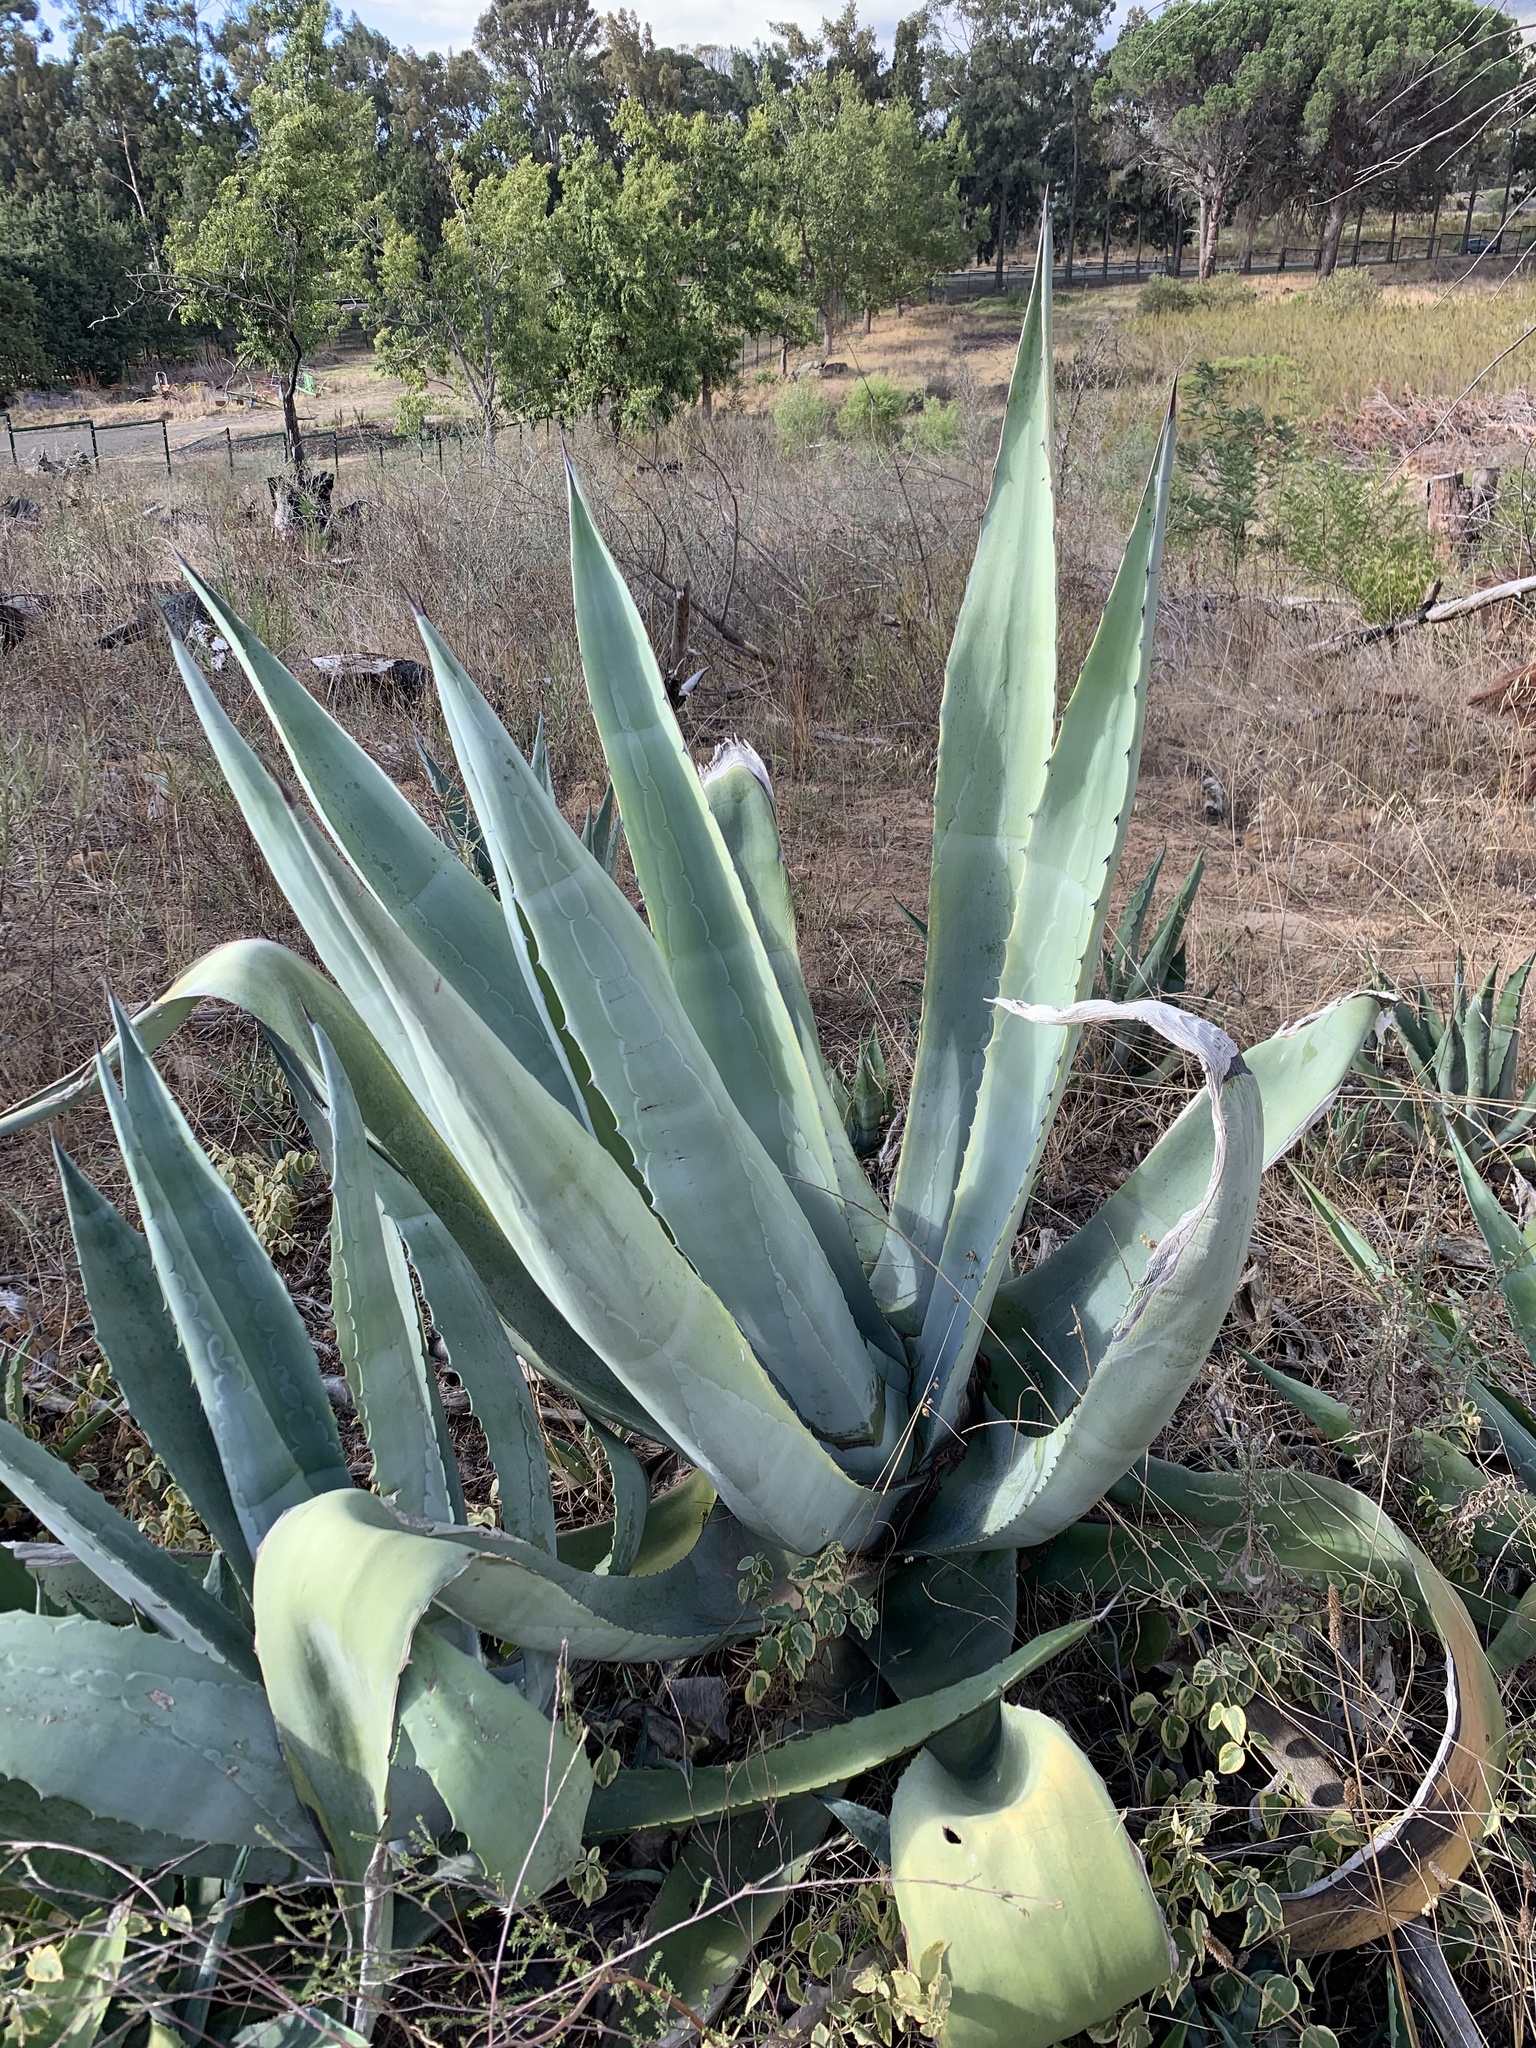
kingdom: Plantae
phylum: Tracheophyta
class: Liliopsida
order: Asparagales
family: Asparagaceae
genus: Agave
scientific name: Agave americana
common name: Centuryplant
